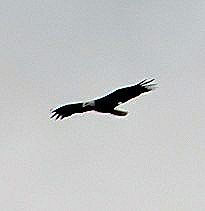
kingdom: Animalia
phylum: Chordata
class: Aves
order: Accipitriformes
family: Accipitridae
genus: Haliaeetus
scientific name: Haliaeetus leucocephalus
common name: Bald eagle
